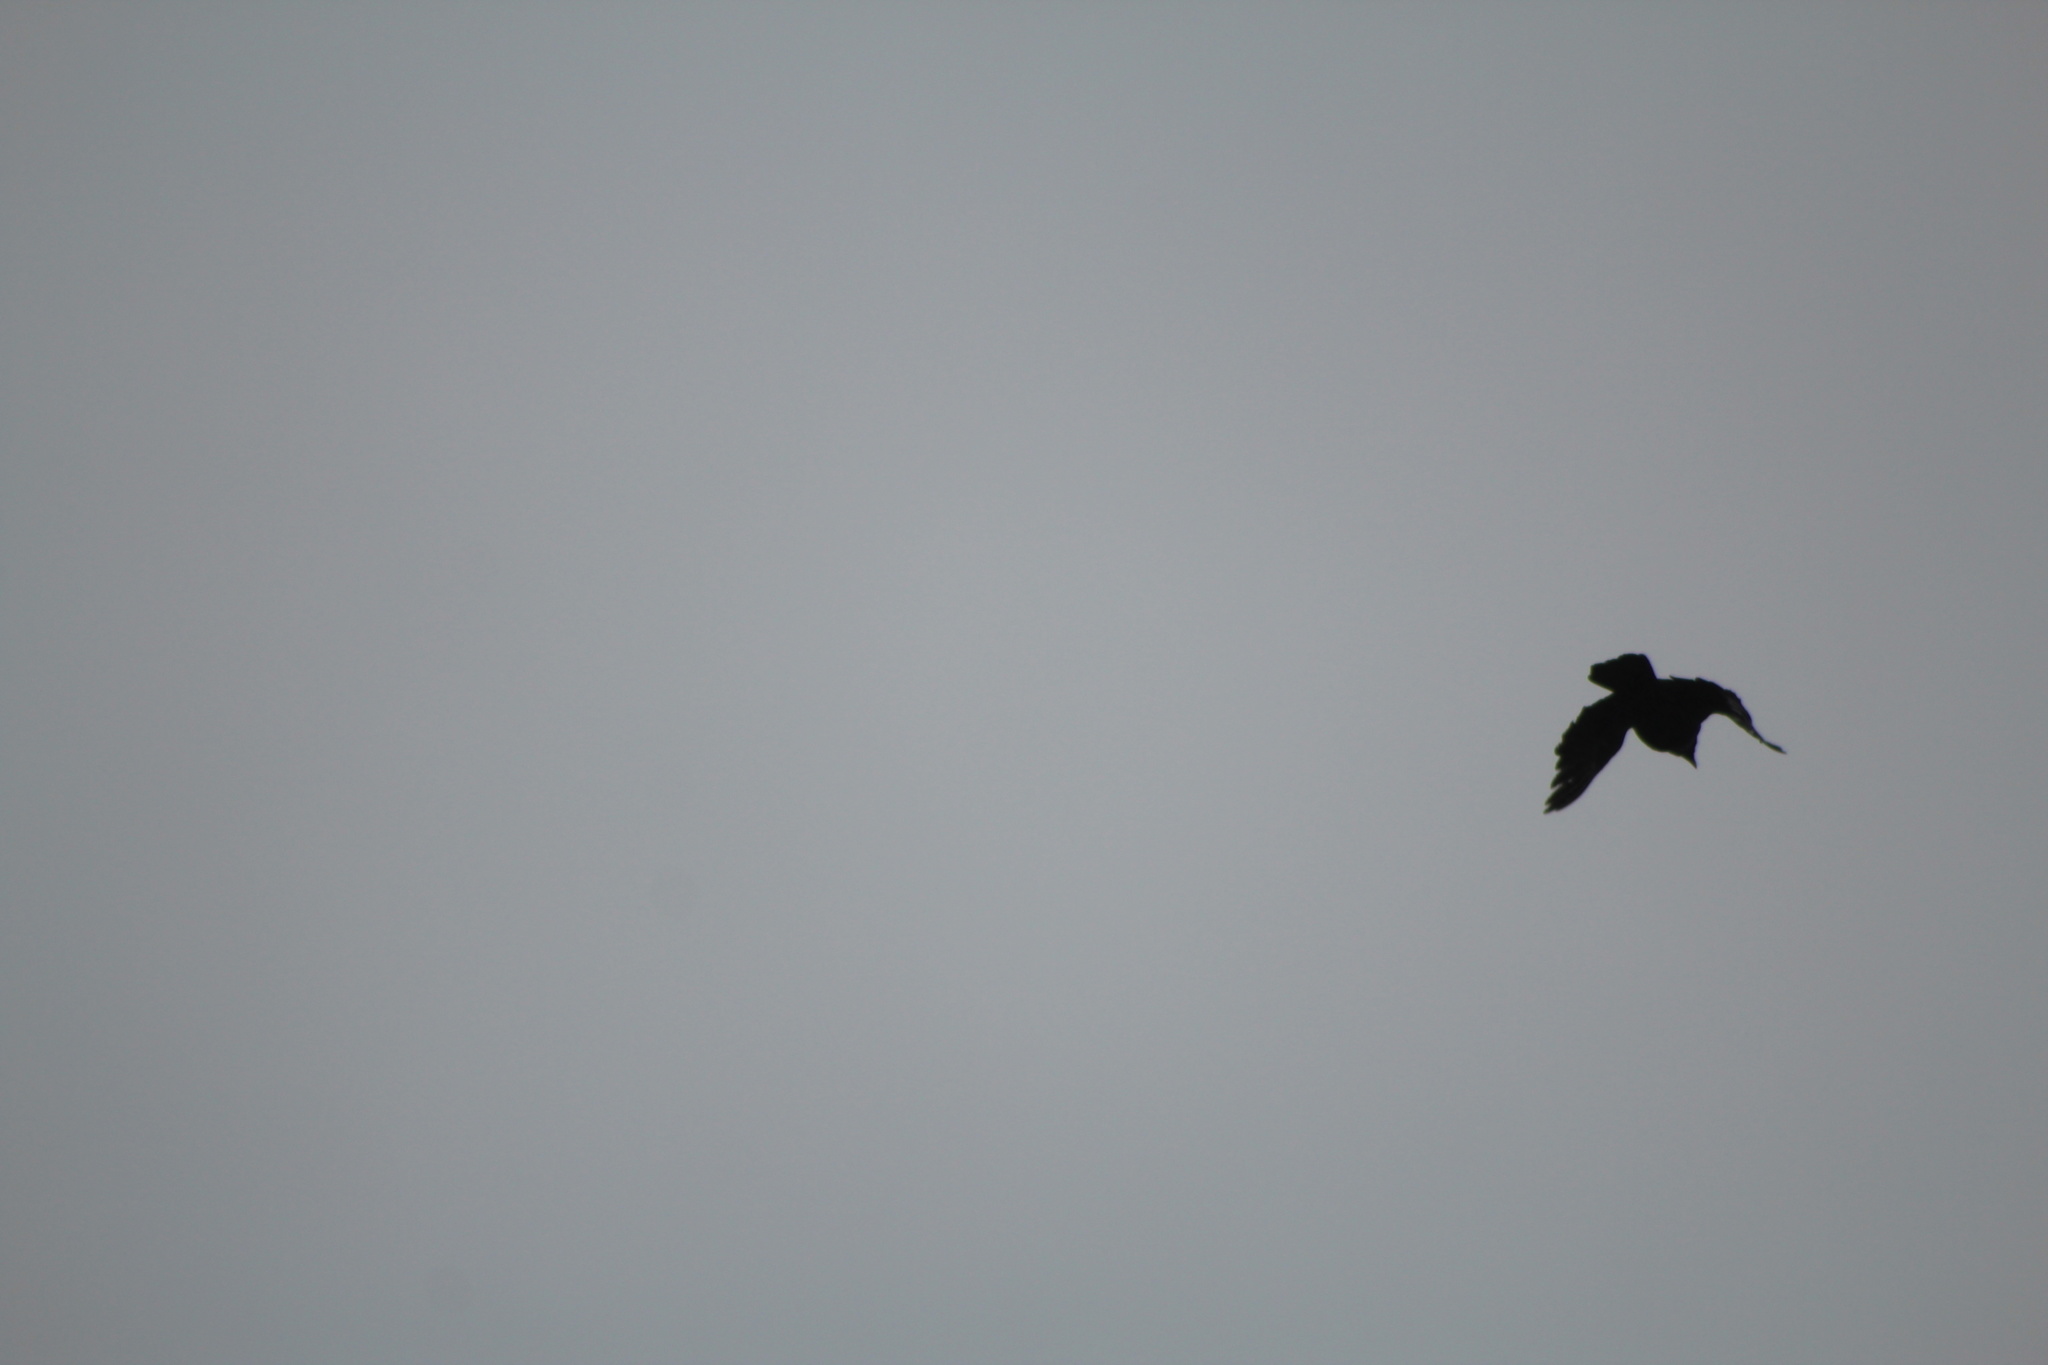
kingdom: Animalia
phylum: Chordata
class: Aves
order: Passeriformes
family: Corvidae
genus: Corvus
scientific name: Corvus brachyrhynchos
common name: American crow
